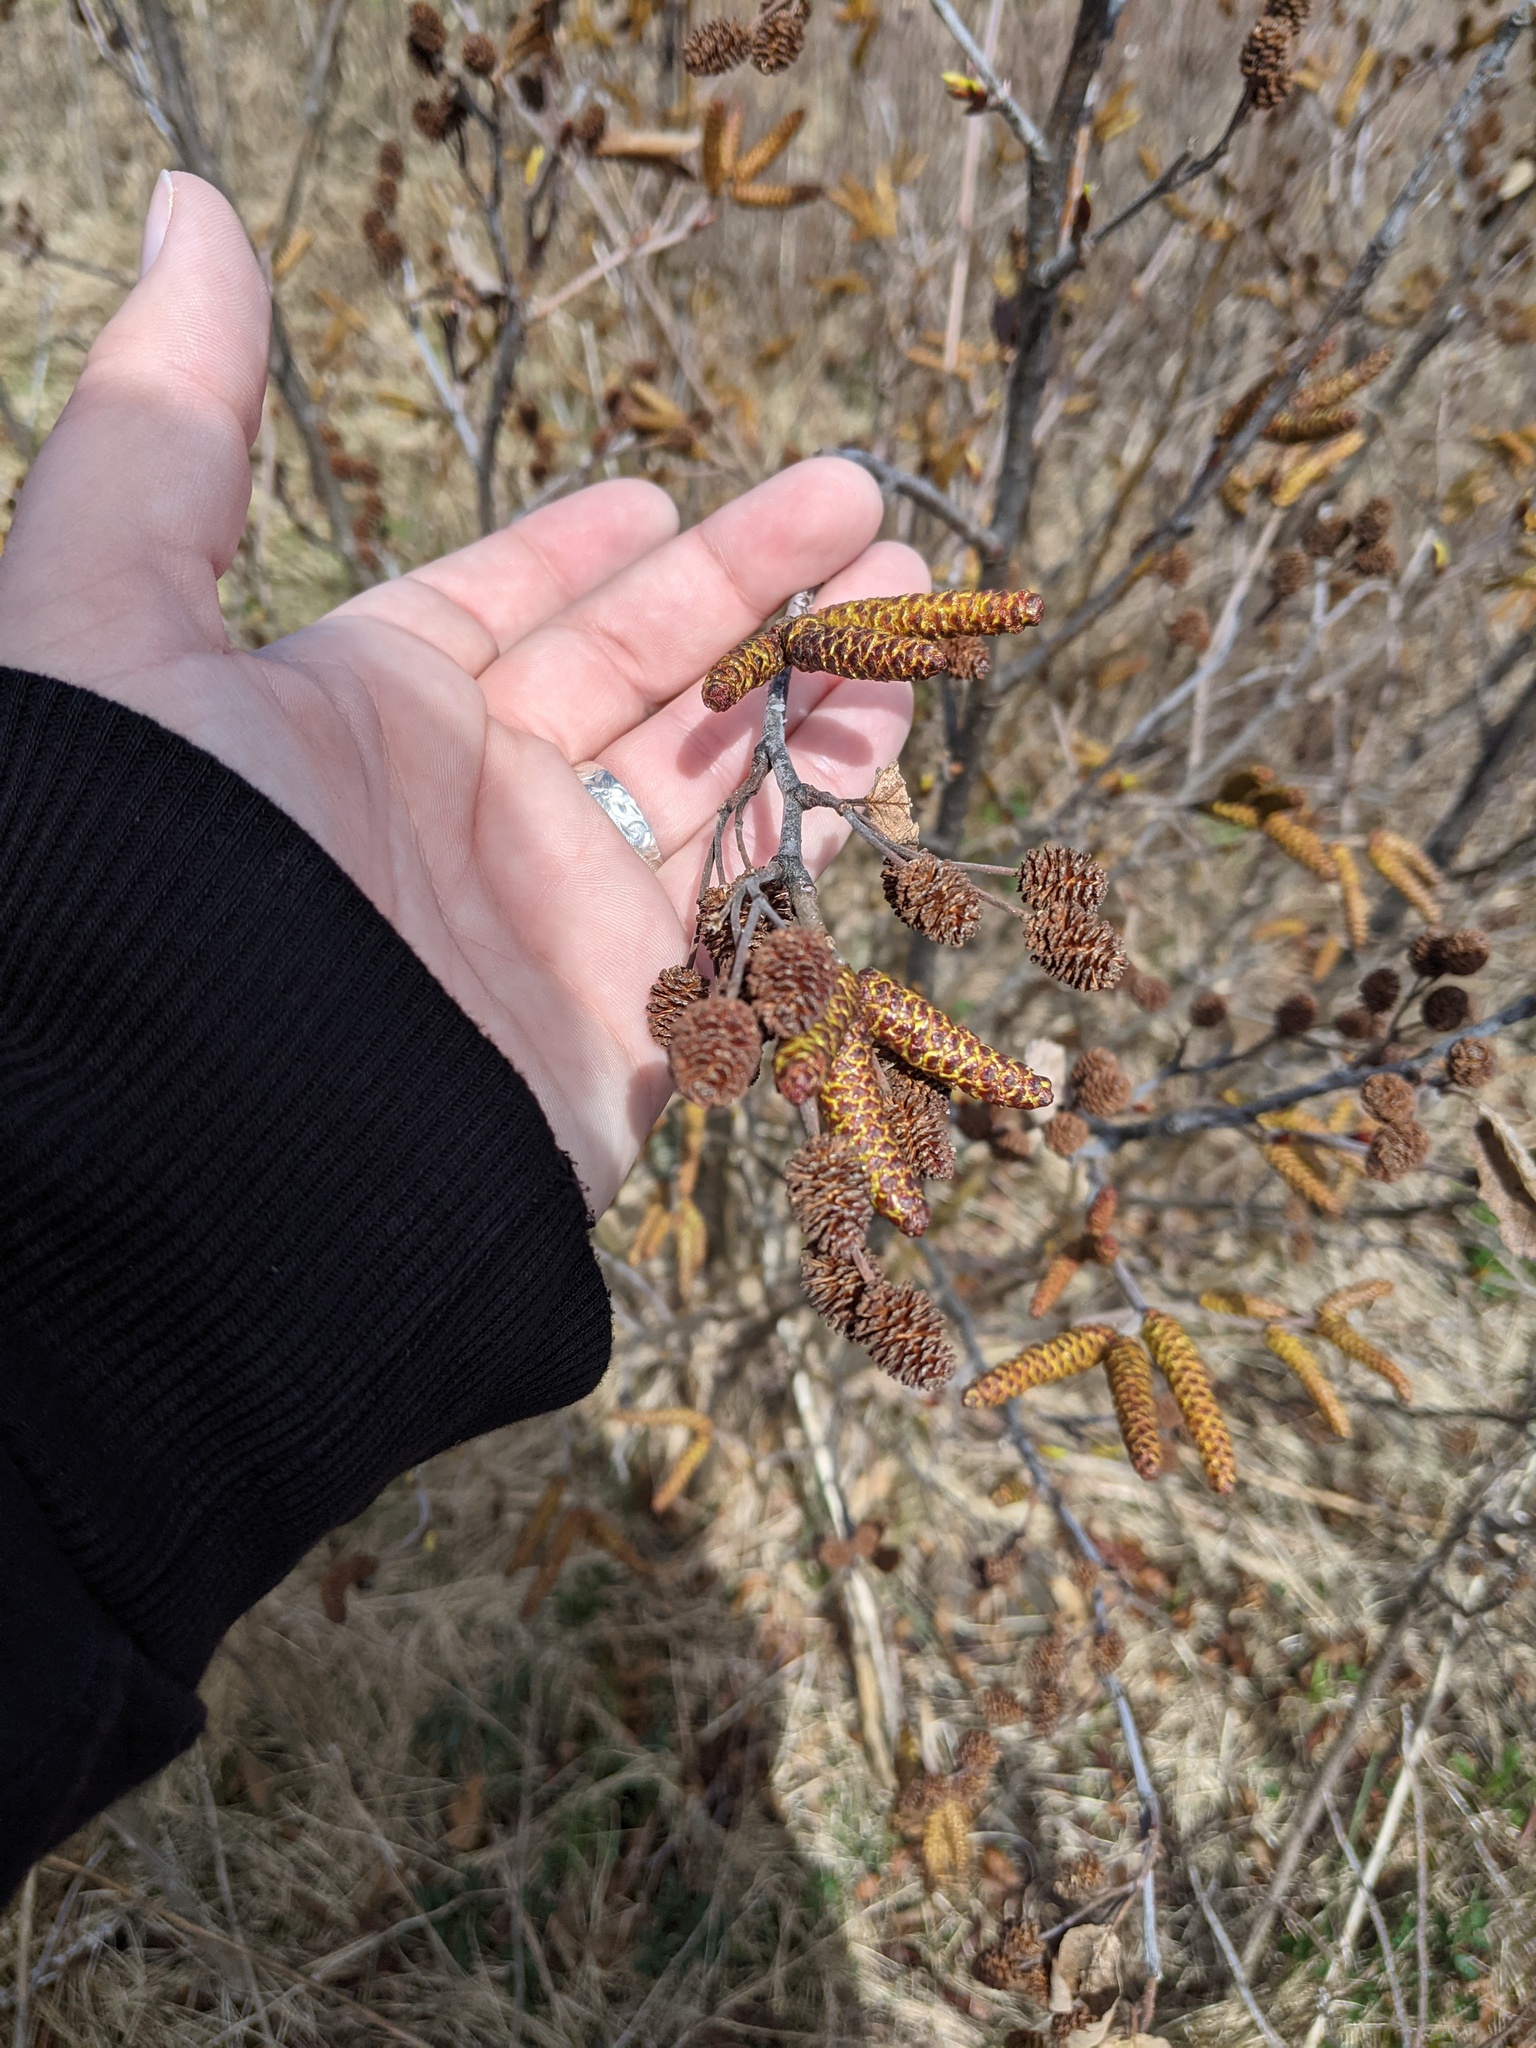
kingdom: Plantae
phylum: Tracheophyta
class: Magnoliopsida
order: Fagales
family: Betulaceae
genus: Alnus
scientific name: Alnus alnobetula
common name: Green alder
